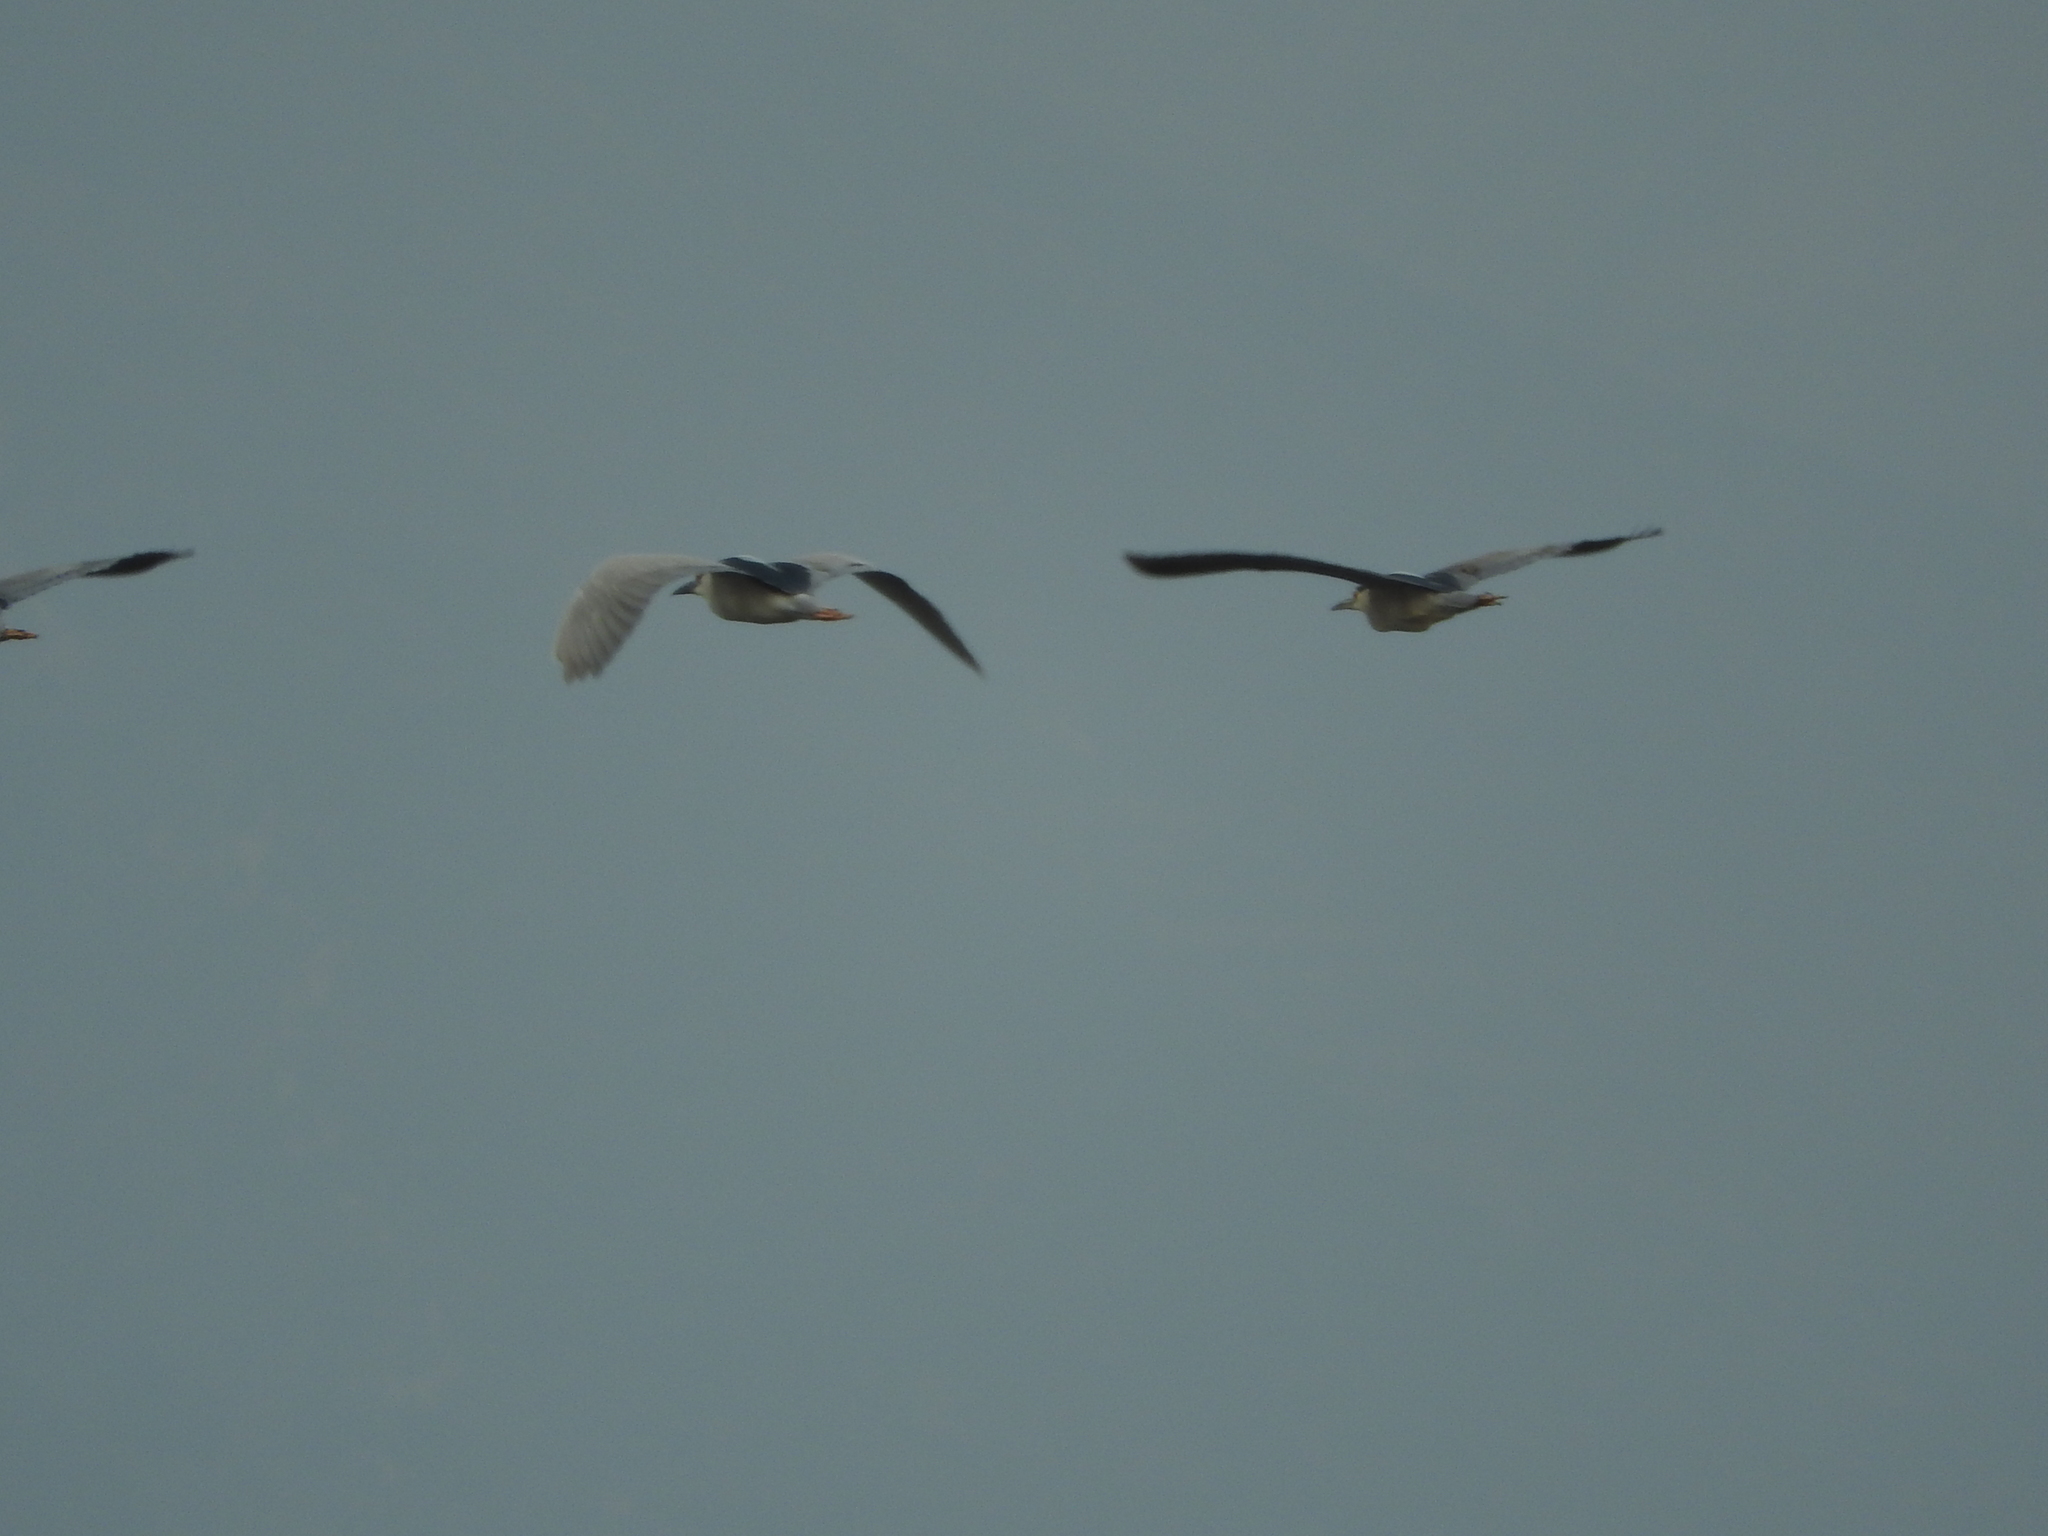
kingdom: Animalia
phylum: Chordata
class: Aves
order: Pelecaniformes
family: Ardeidae
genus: Nycticorax
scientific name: Nycticorax nycticorax
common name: Black-crowned night heron
